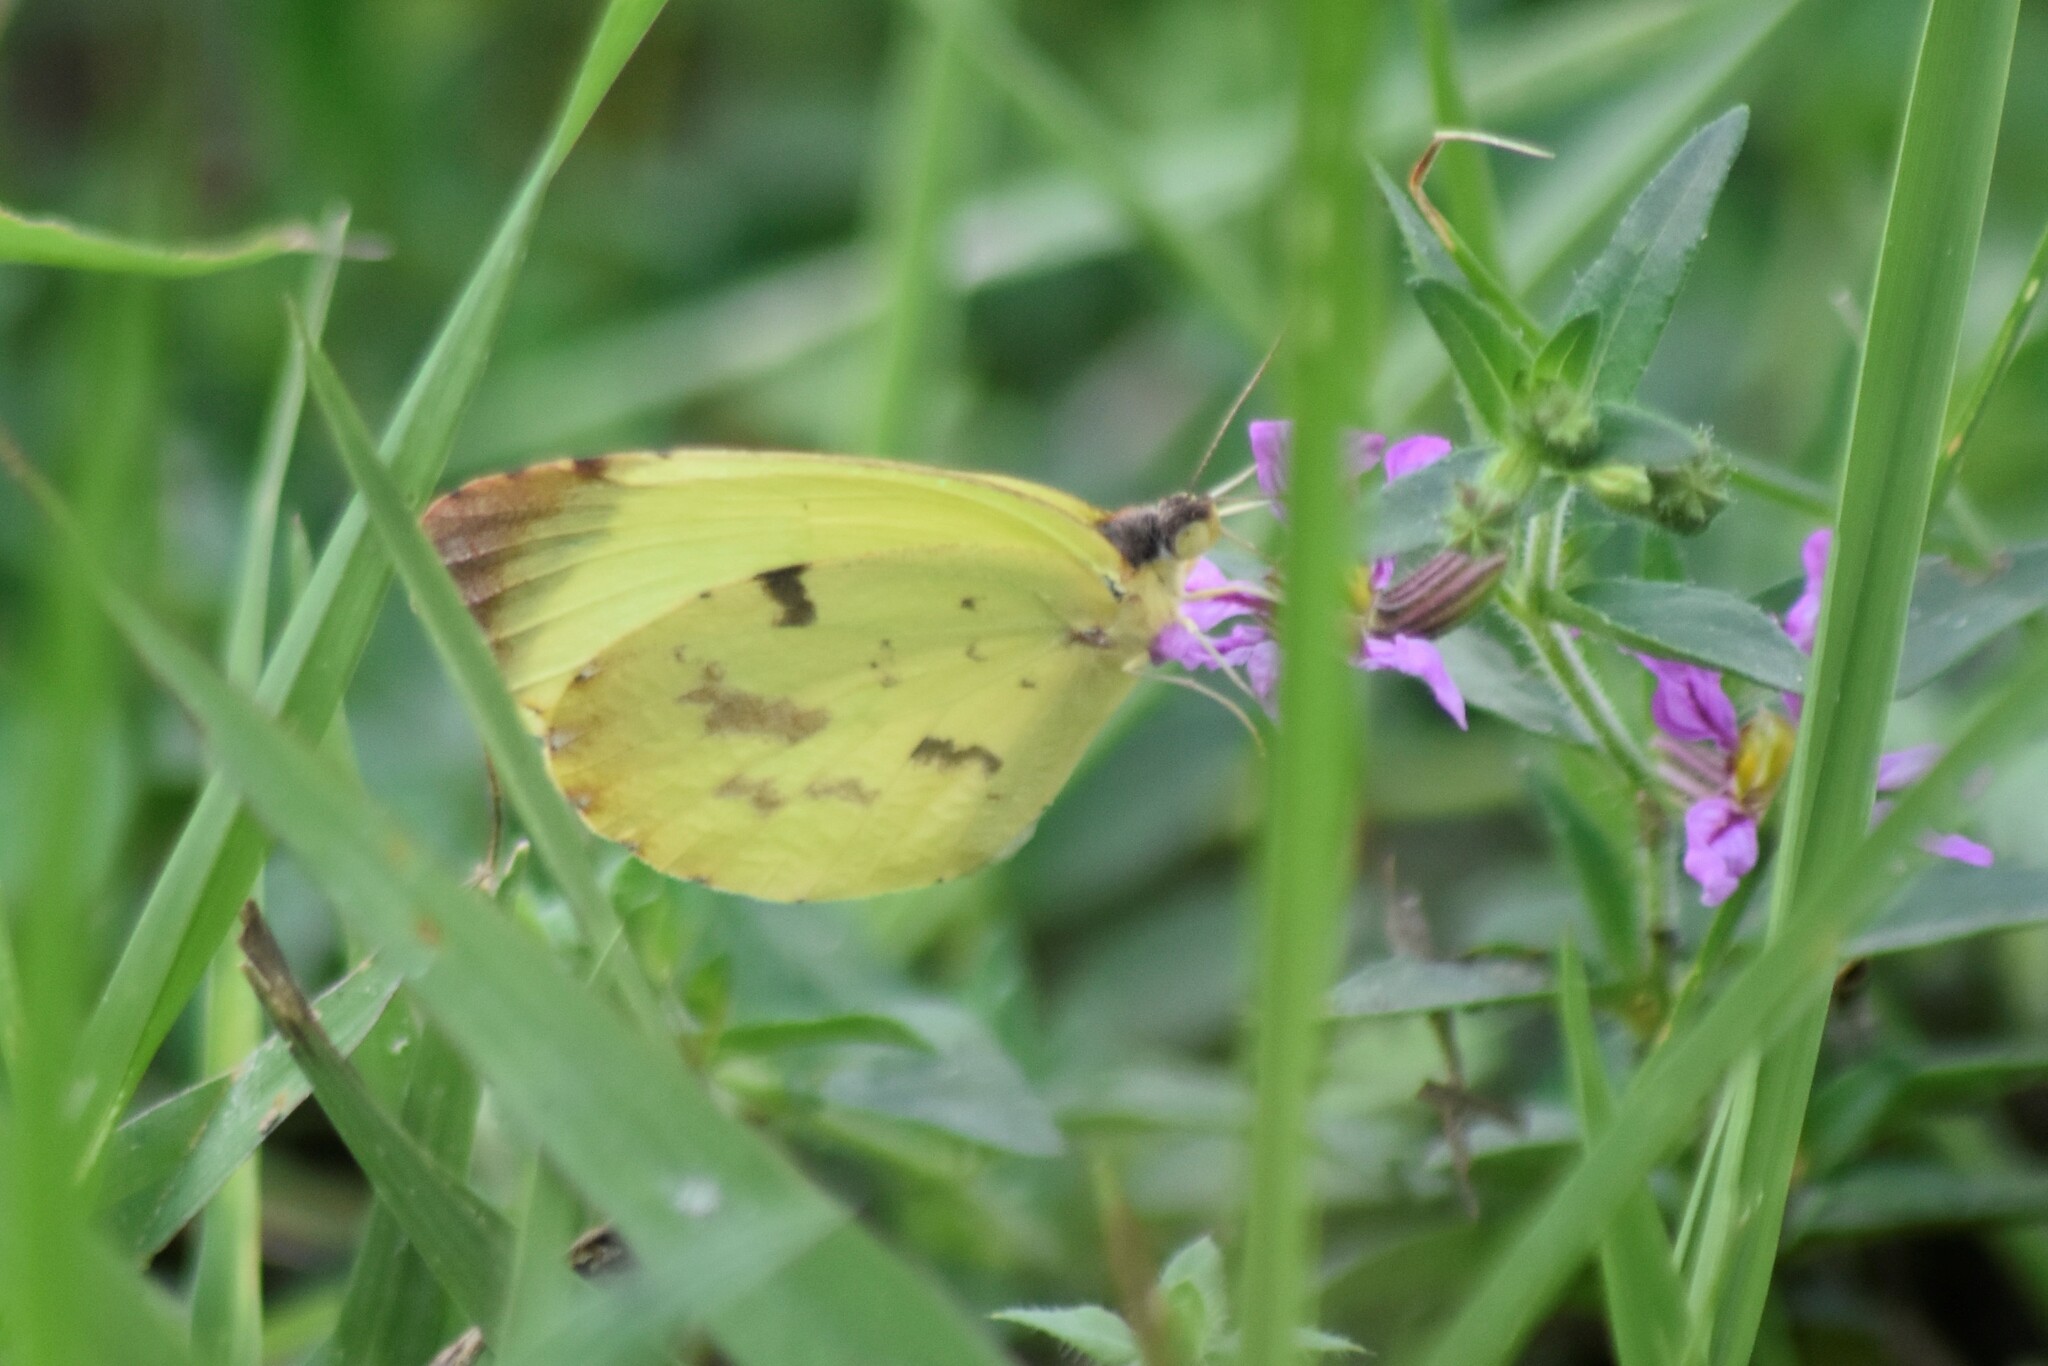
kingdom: Animalia
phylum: Arthropoda
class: Insecta
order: Lepidoptera
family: Pieridae
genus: Teriocolias
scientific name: Teriocolias
